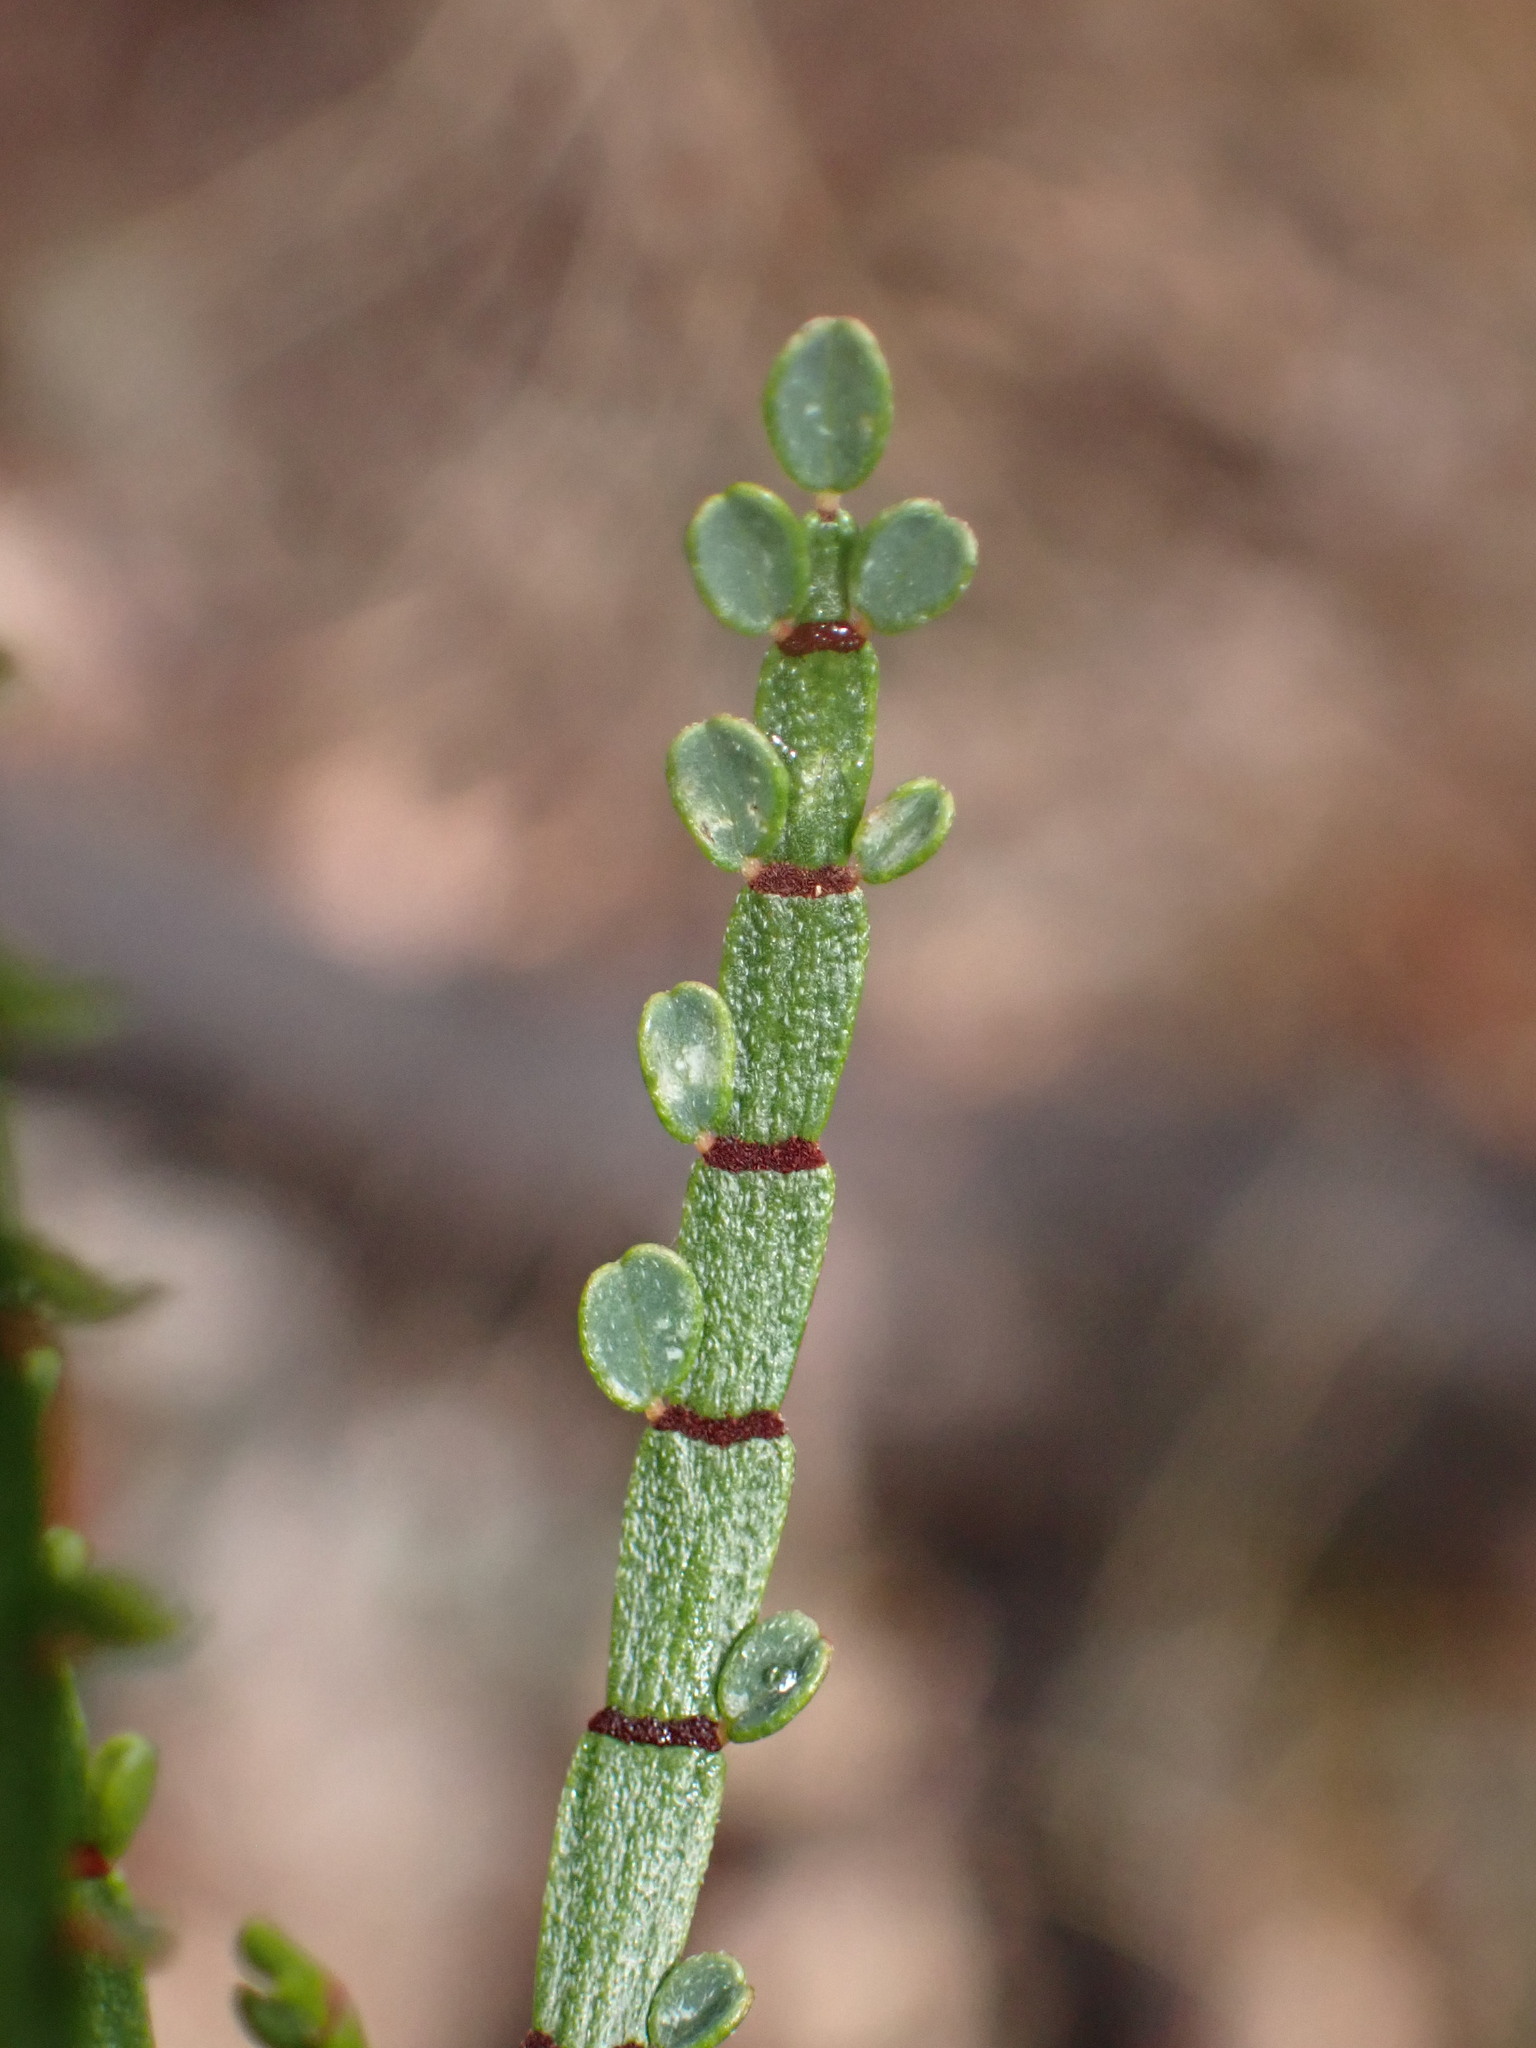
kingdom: Plantae
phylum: Tracheophyta
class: Magnoliopsida
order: Fabales
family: Fabaceae
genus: Indigofera
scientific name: Indigofera adesmiifolia
